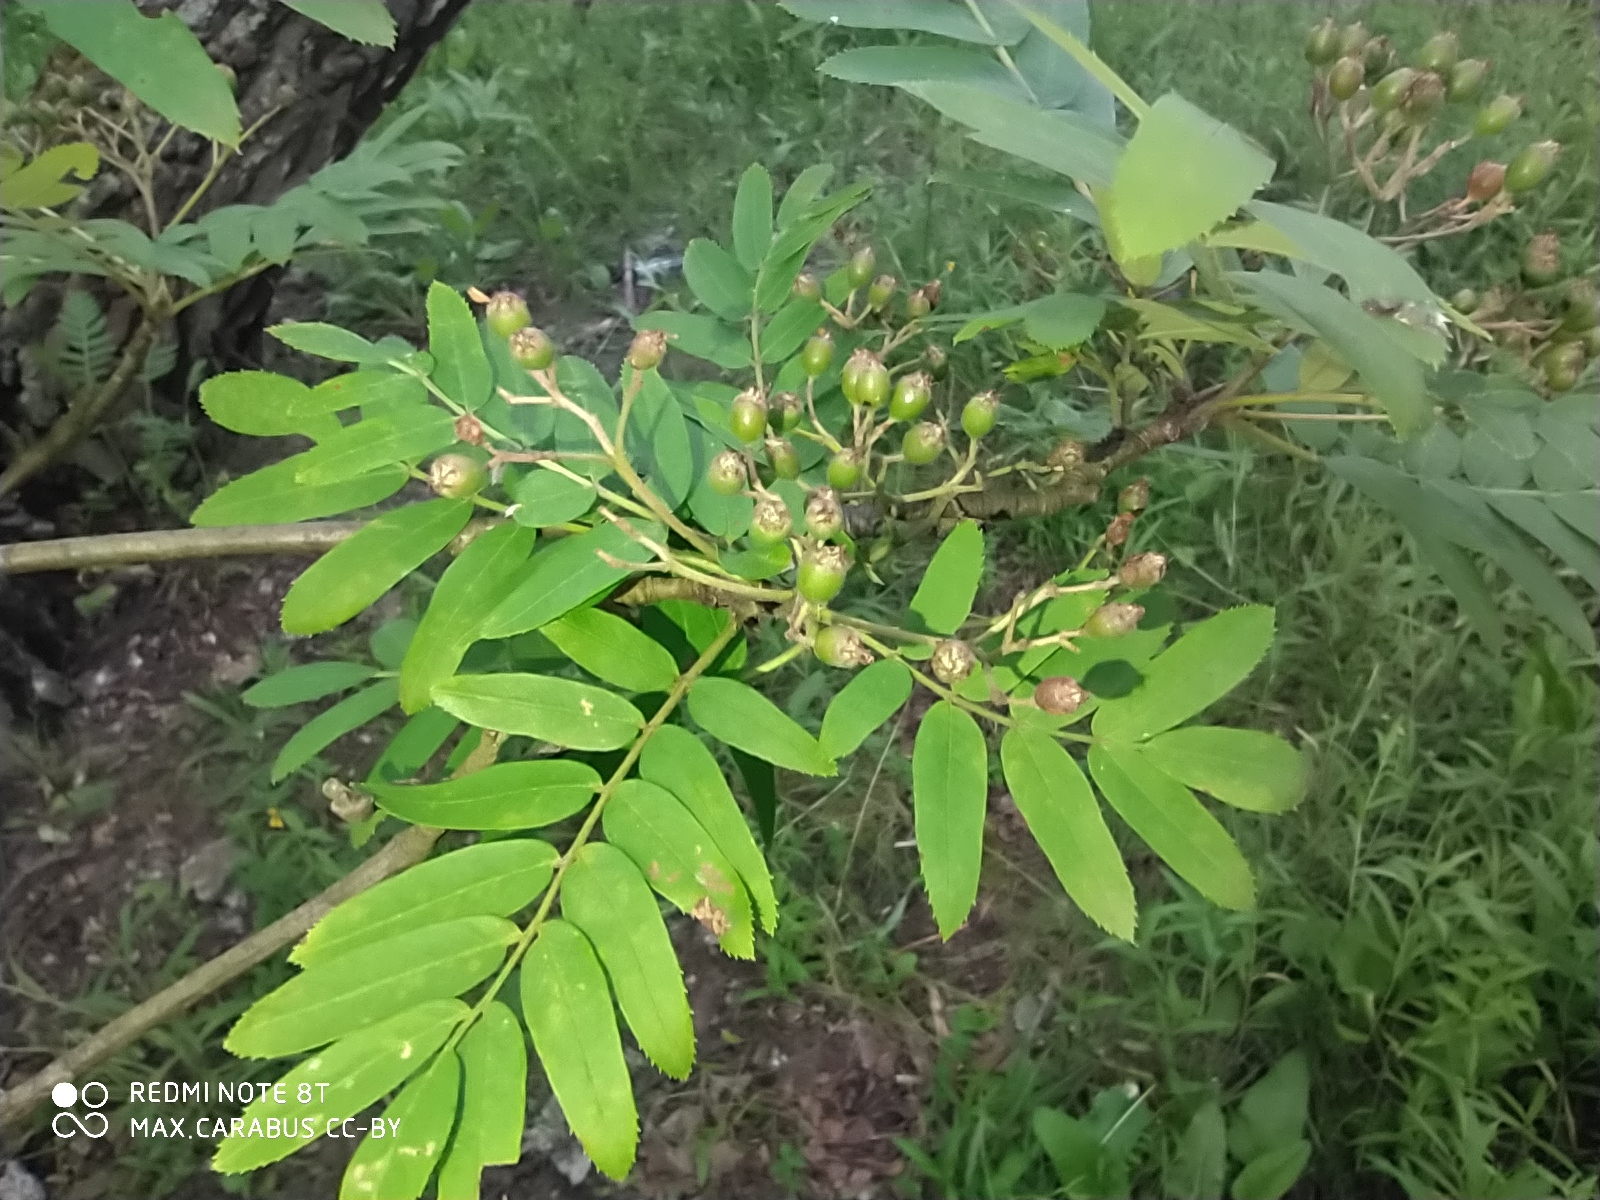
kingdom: Plantae
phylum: Tracheophyta
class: Magnoliopsida
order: Rosales
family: Rosaceae
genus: Sorbus
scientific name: Sorbus aucuparia
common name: Rowan
